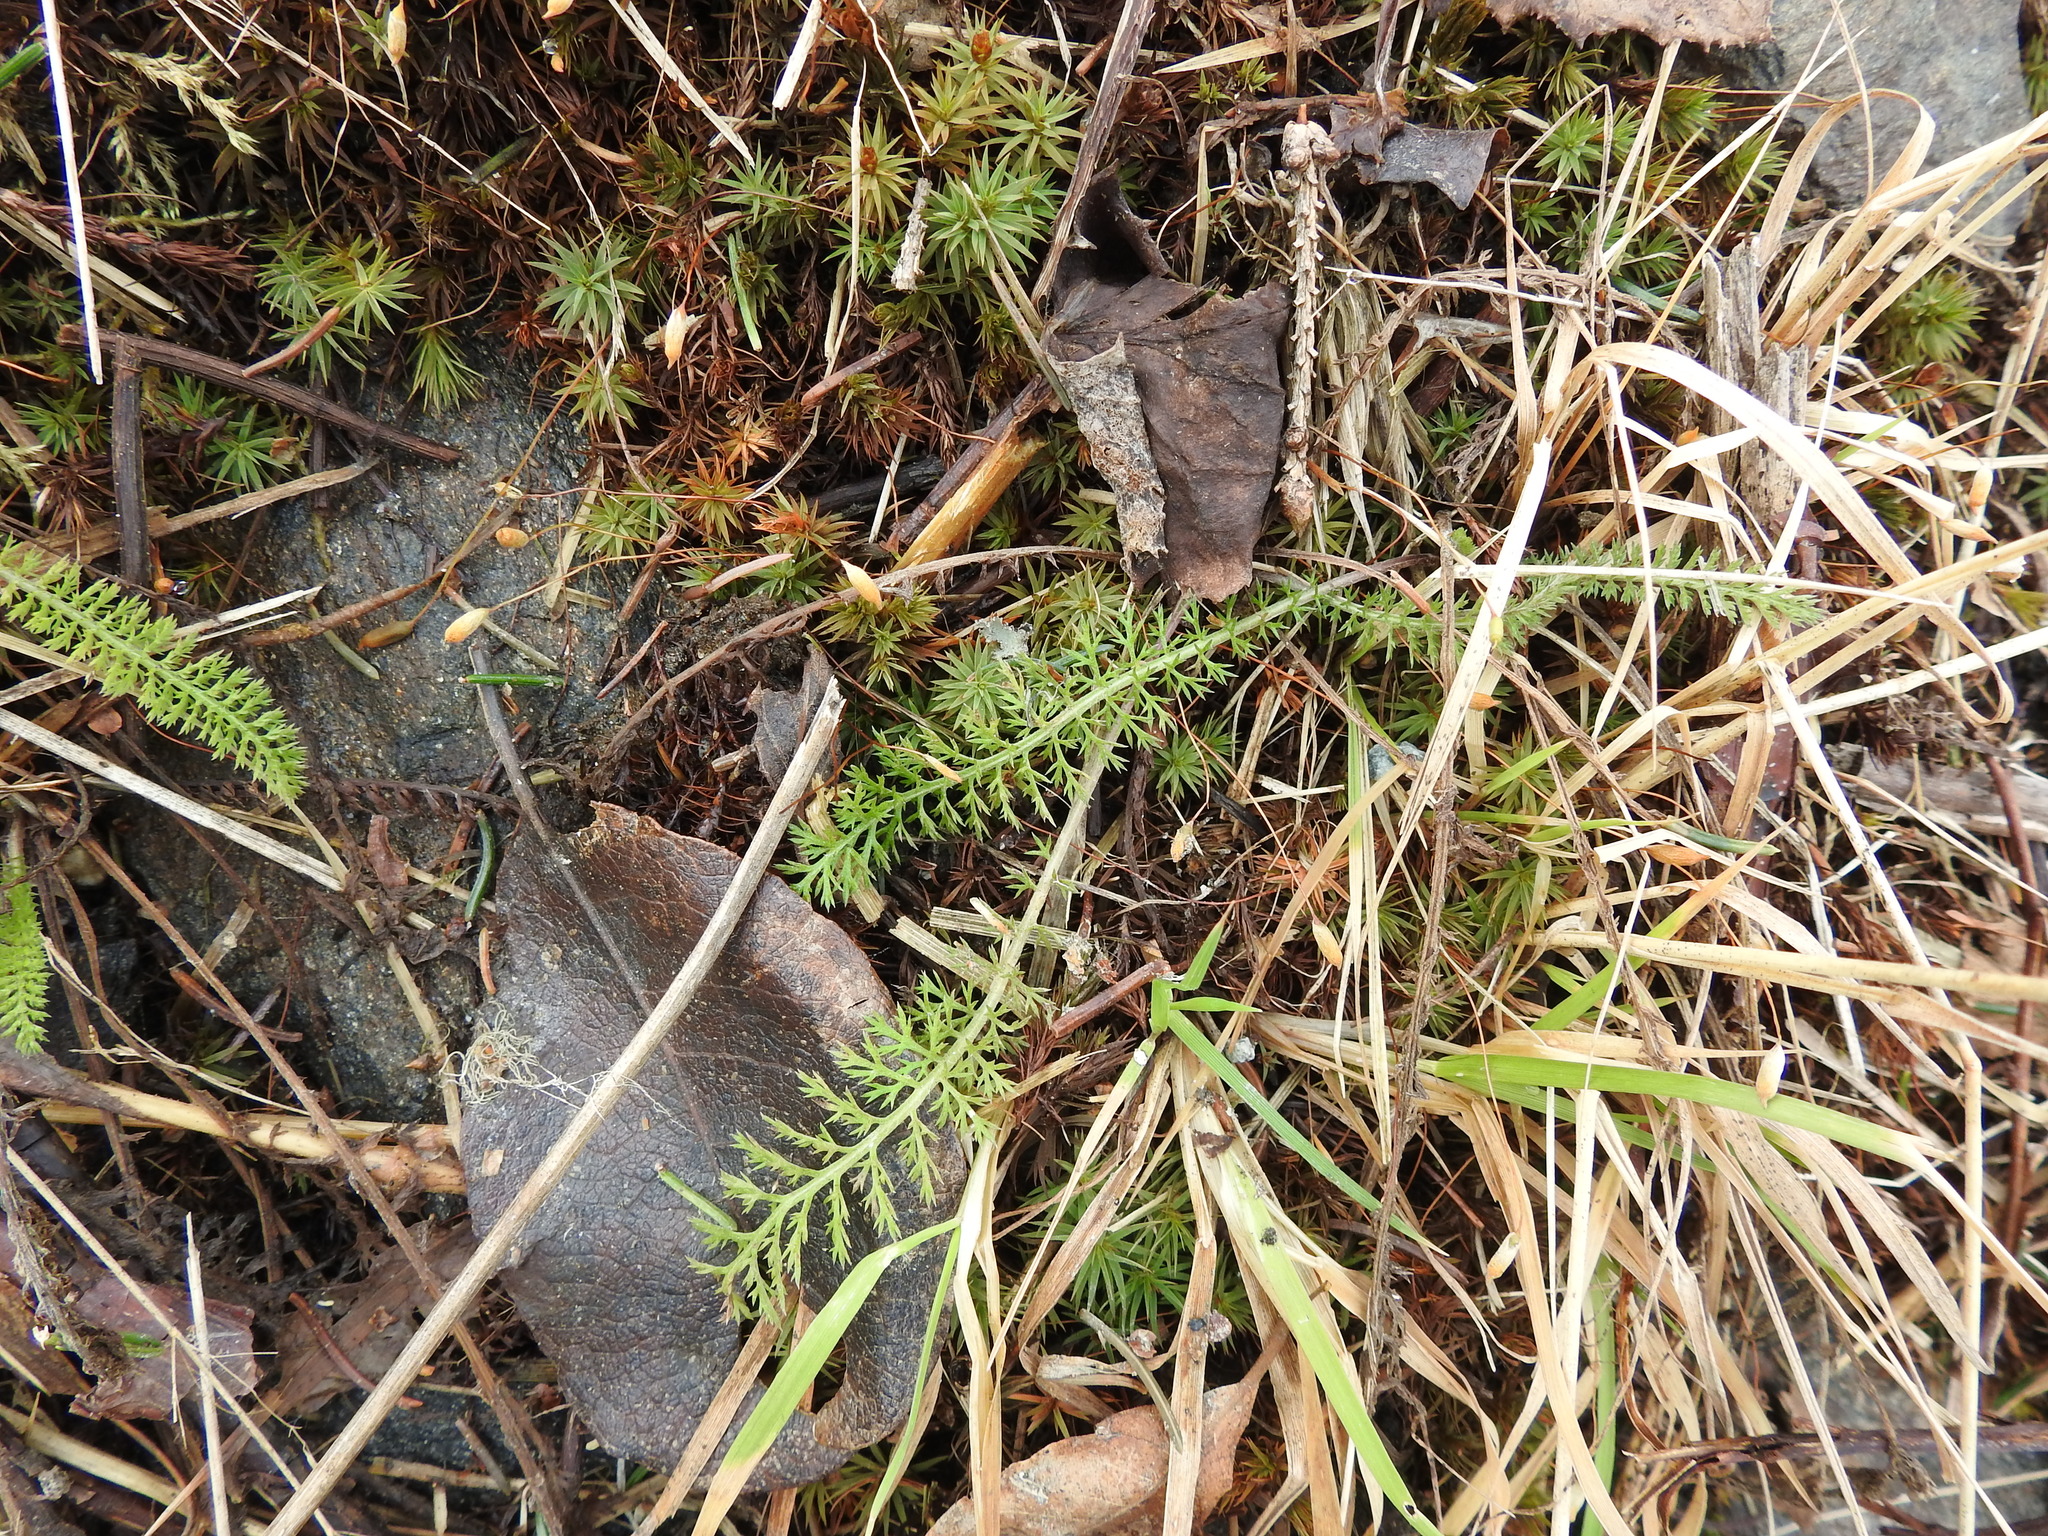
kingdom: Plantae
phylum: Tracheophyta
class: Magnoliopsida
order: Asterales
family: Asteraceae
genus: Achillea
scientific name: Achillea millefolium
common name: Yarrow
